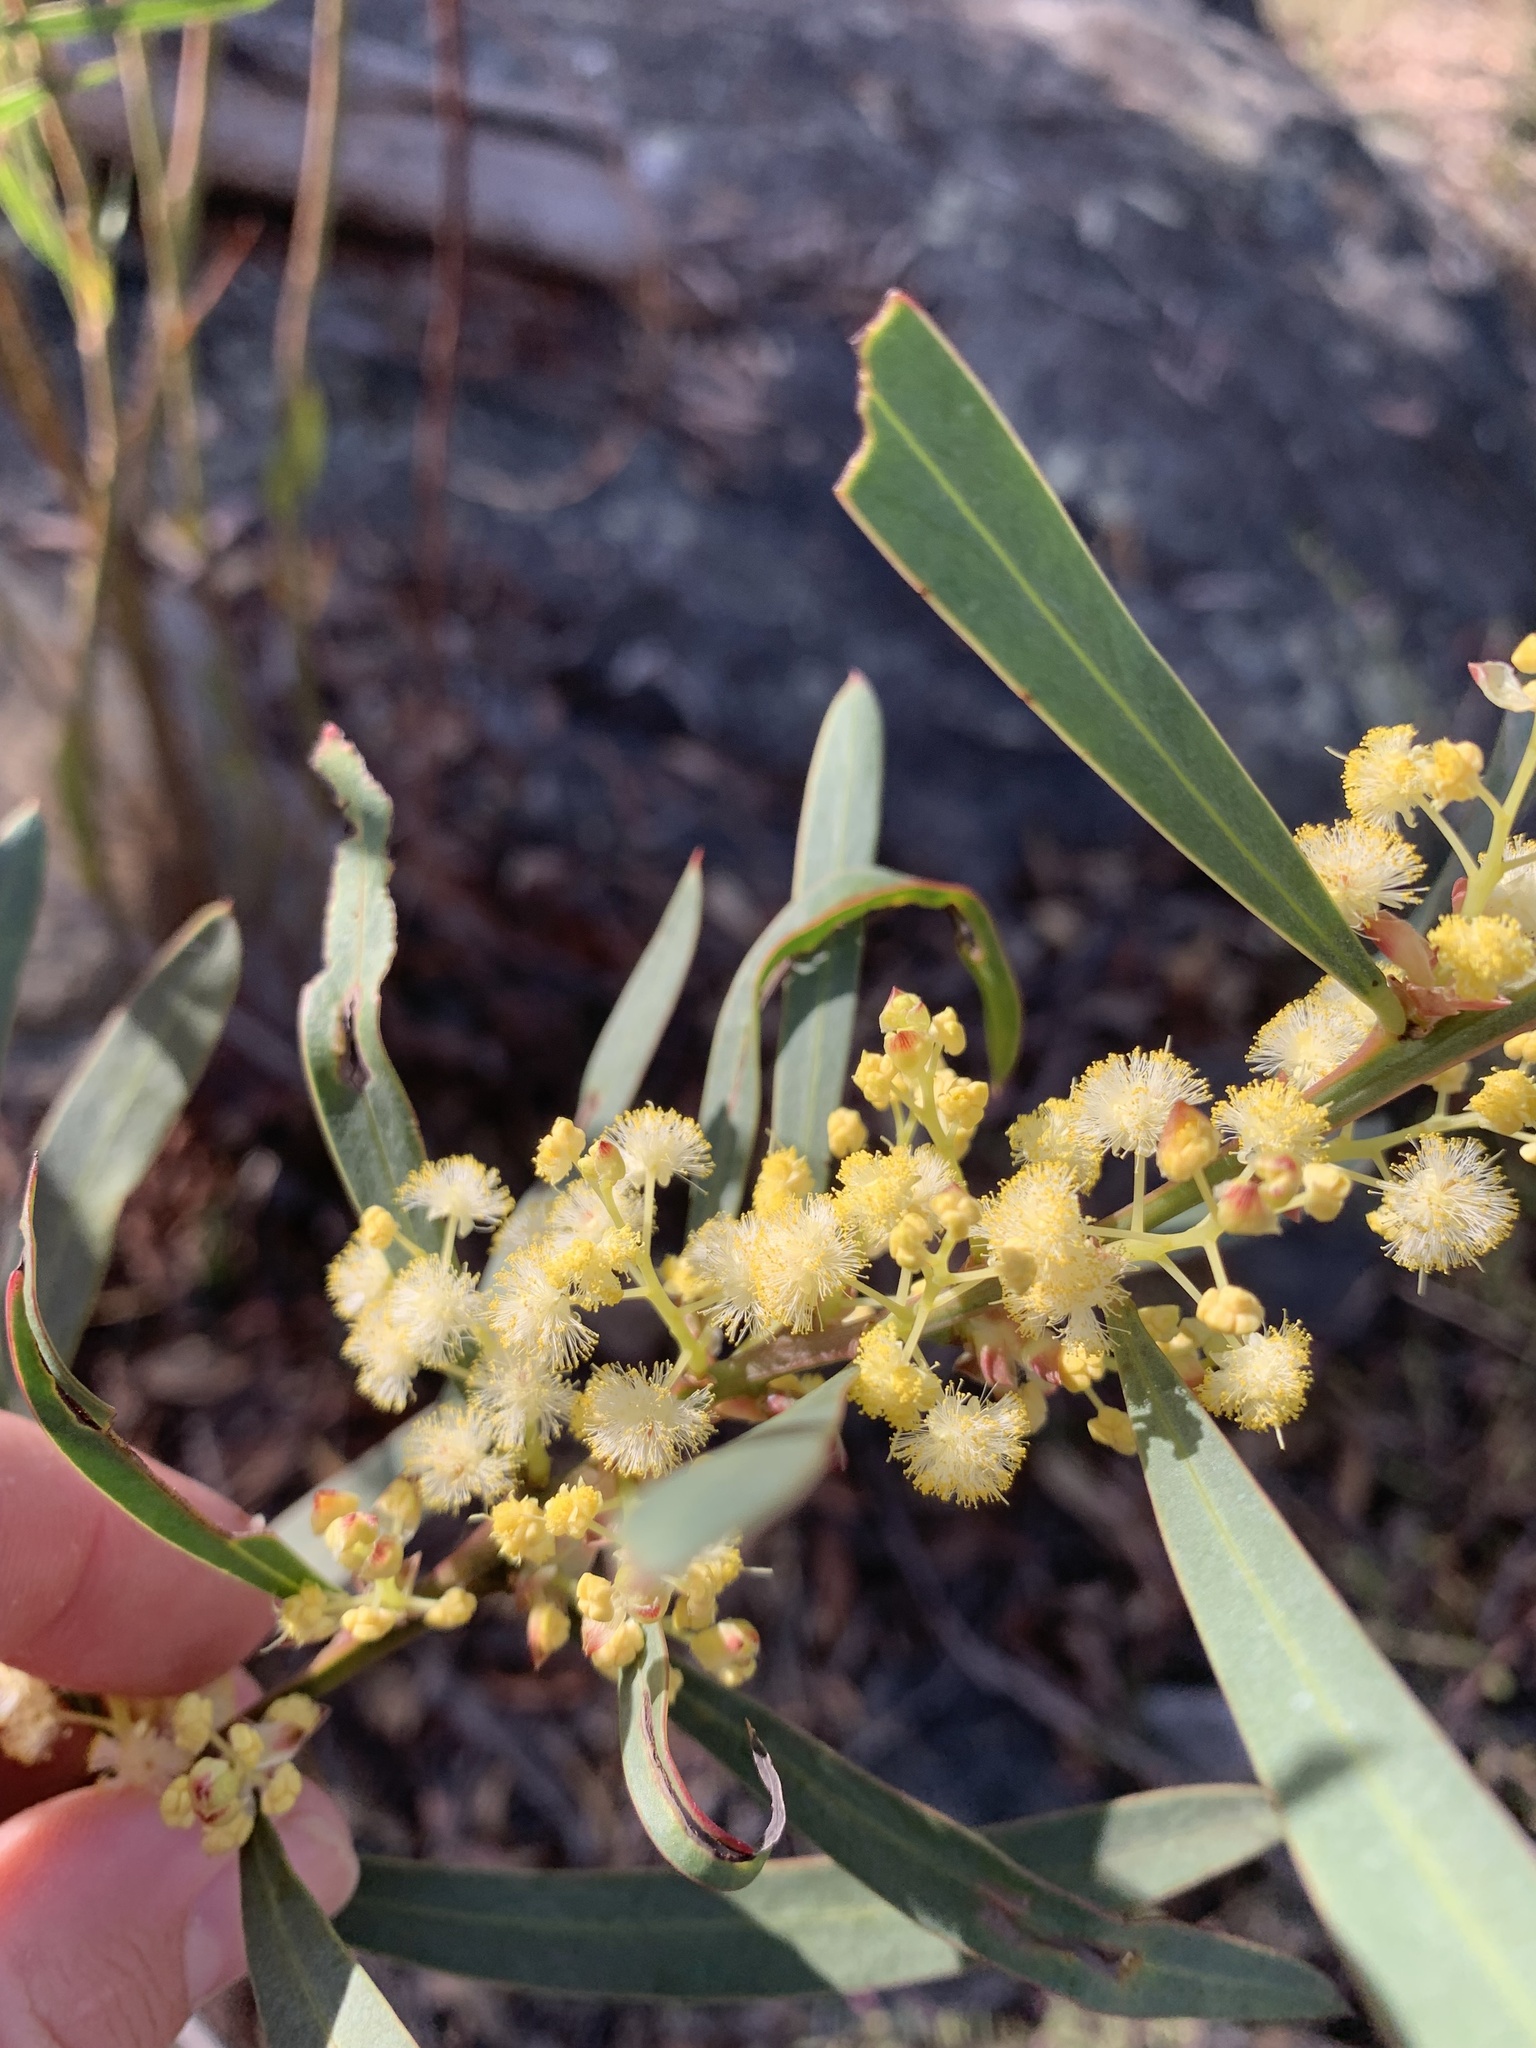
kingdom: Plantae
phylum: Tracheophyta
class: Magnoliopsida
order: Fabales
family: Fabaceae
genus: Acacia
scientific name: Acacia suaveolens
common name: Sweet acacia
